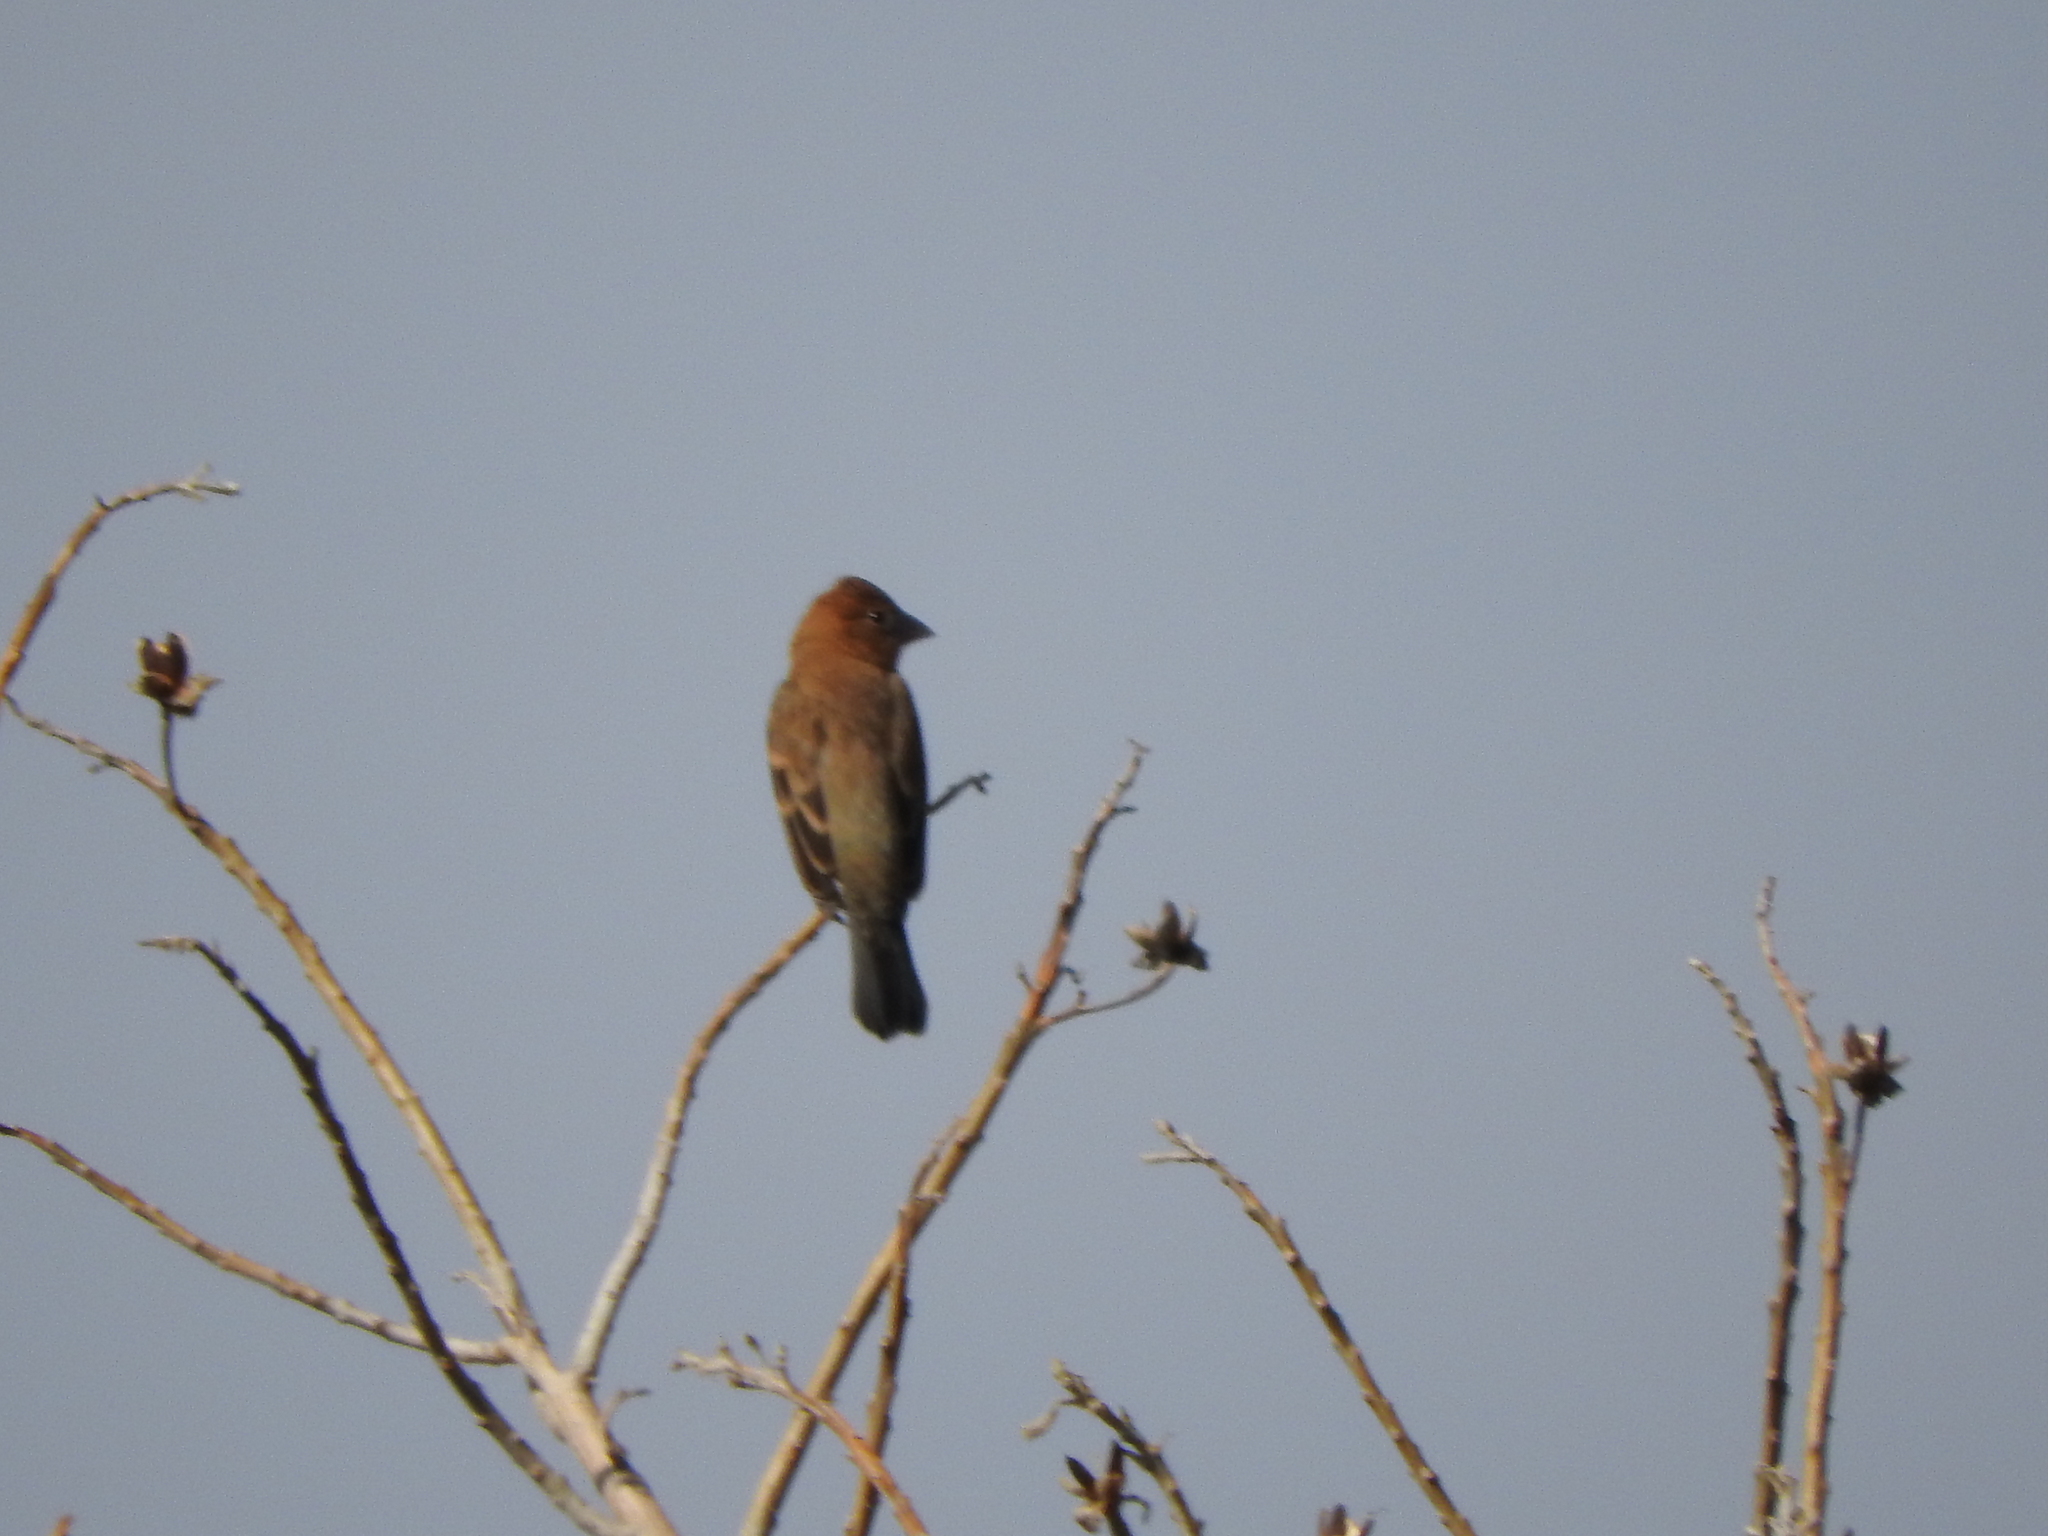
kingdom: Animalia
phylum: Chordata
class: Aves
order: Passeriformes
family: Cardinalidae
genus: Passerina
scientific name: Passerina caerulea
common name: Blue grosbeak
